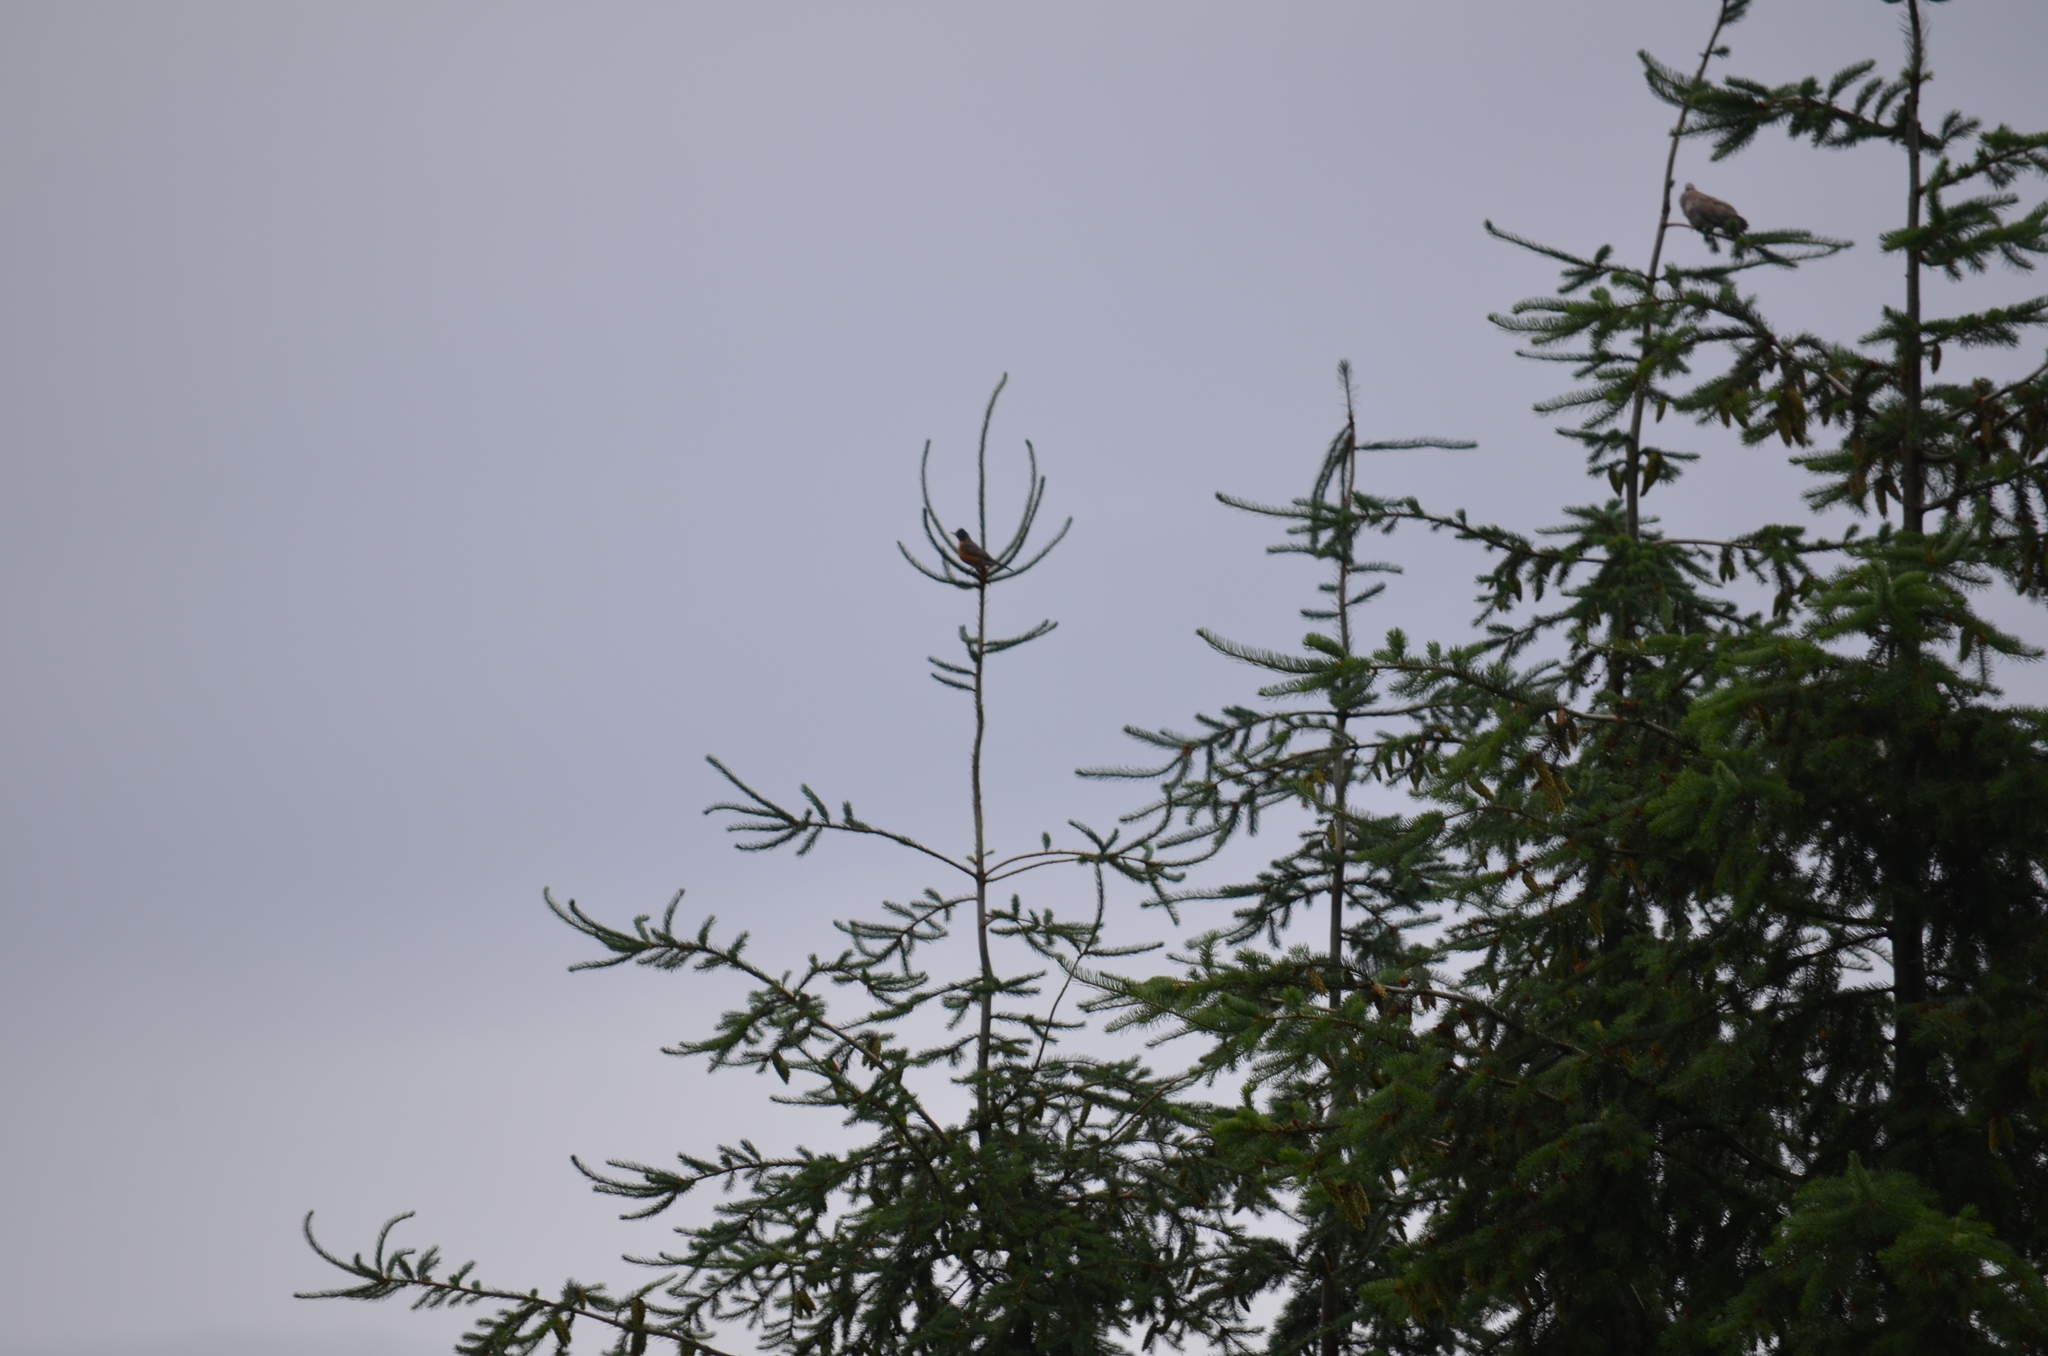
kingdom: Animalia
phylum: Chordata
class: Aves
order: Passeriformes
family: Turdidae
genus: Turdus
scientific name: Turdus migratorius
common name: American robin
